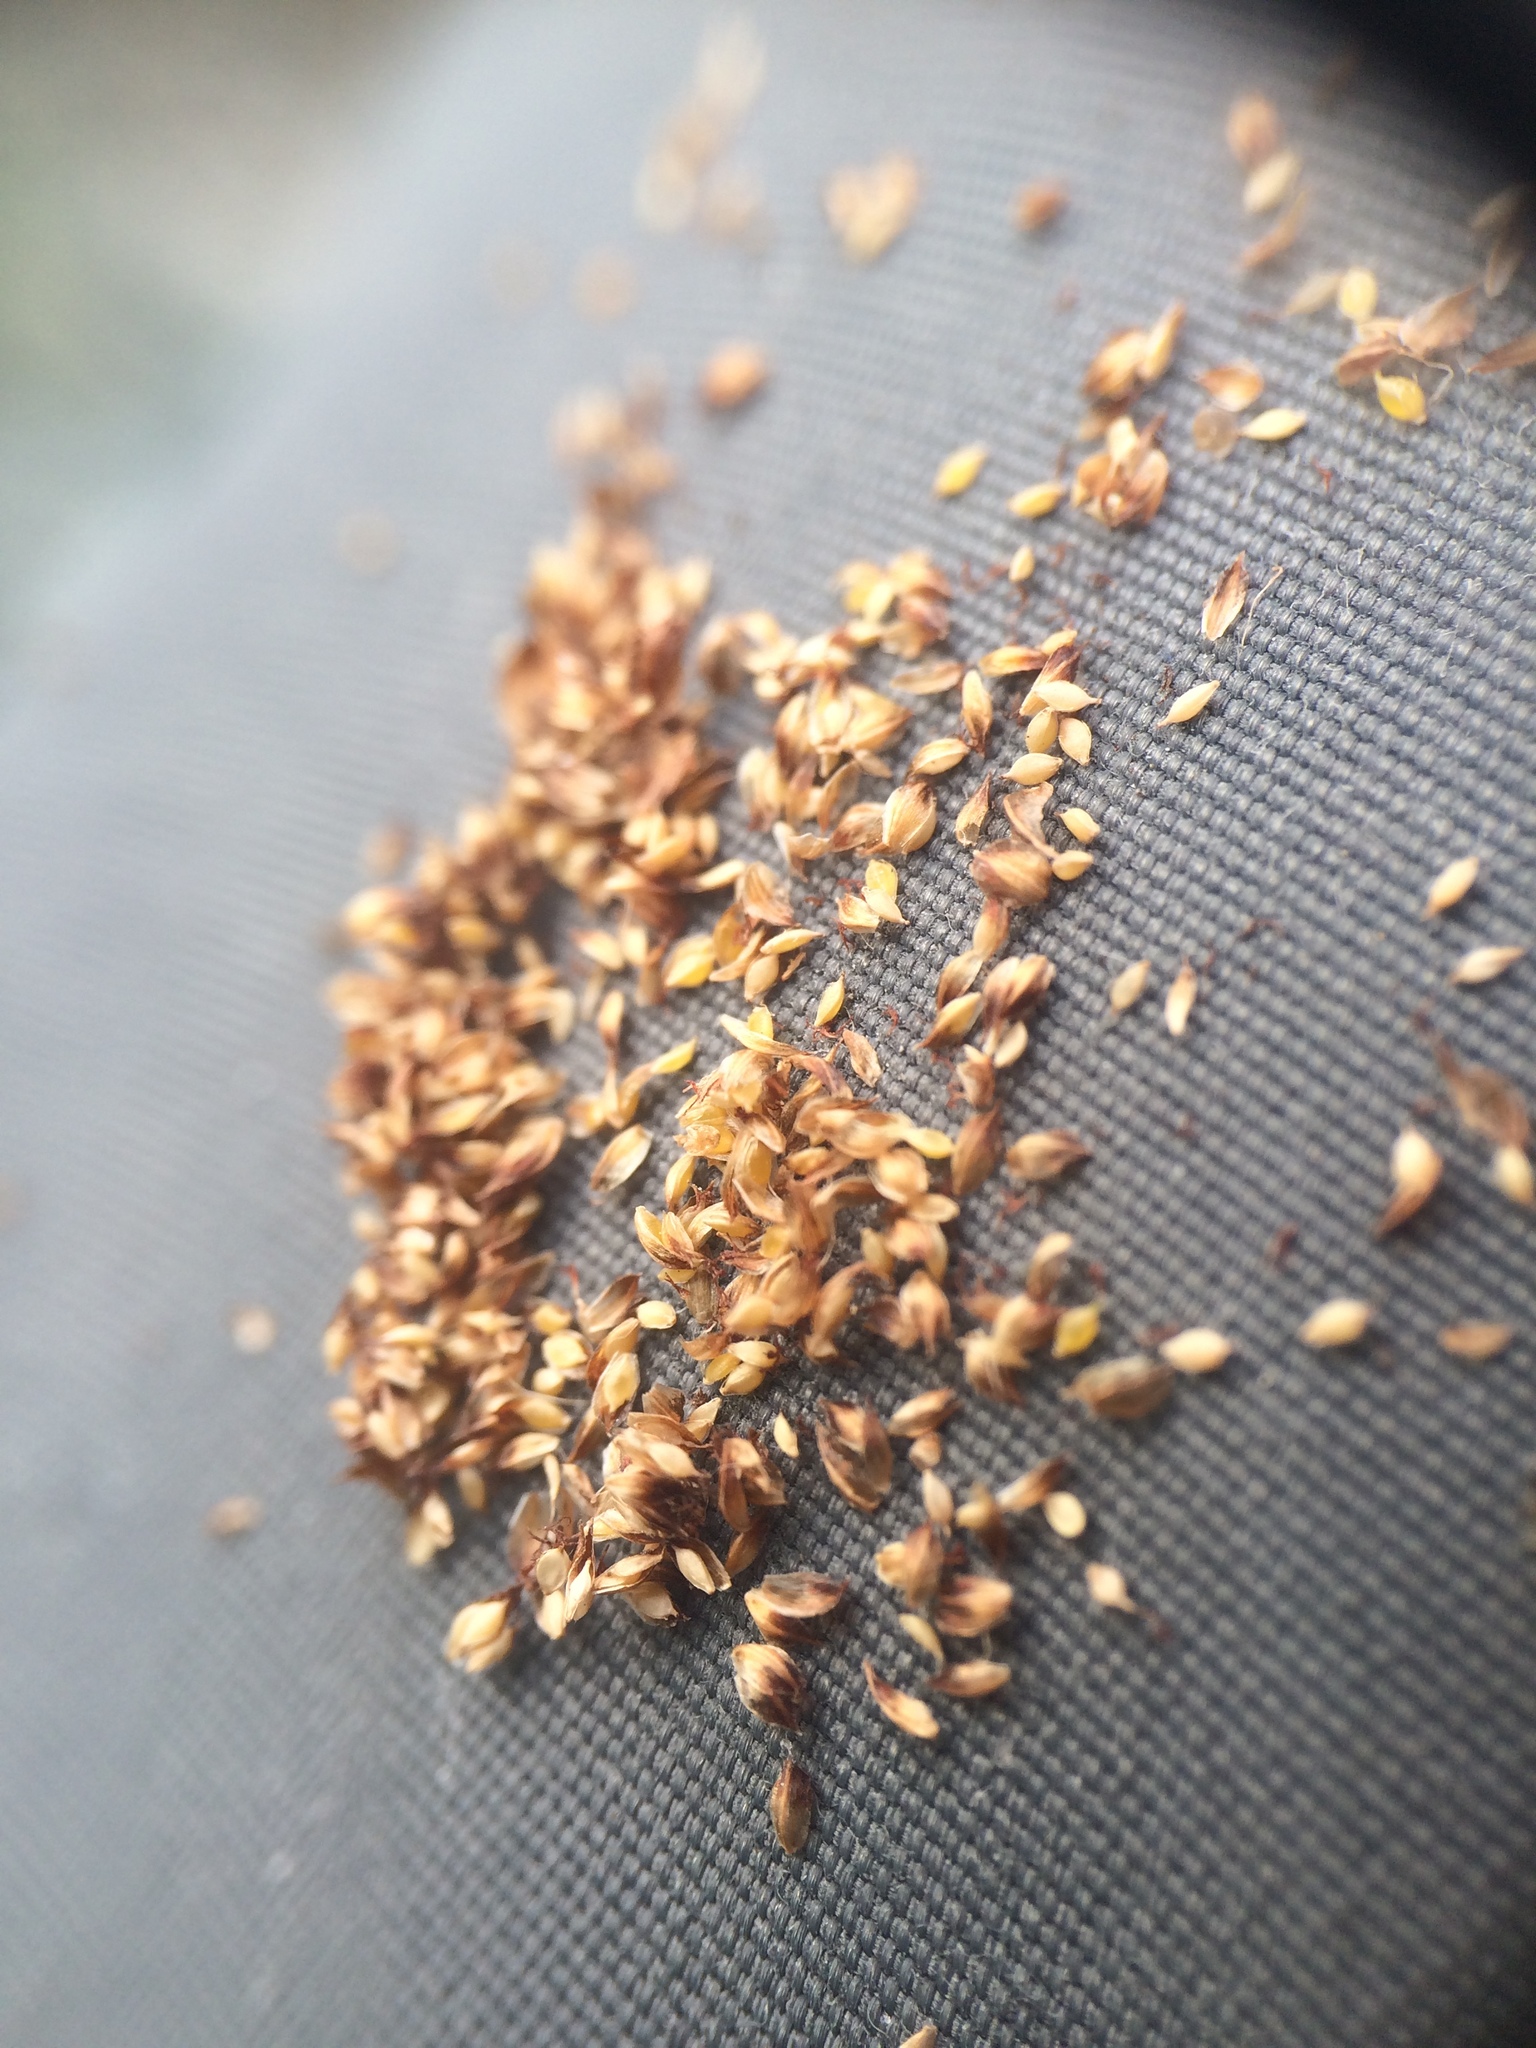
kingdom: Plantae
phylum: Tracheophyta
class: Liliopsida
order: Poales
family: Cyperaceae
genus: Scirpus
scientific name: Scirpus hattorianus
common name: Early dark-green bulrush
